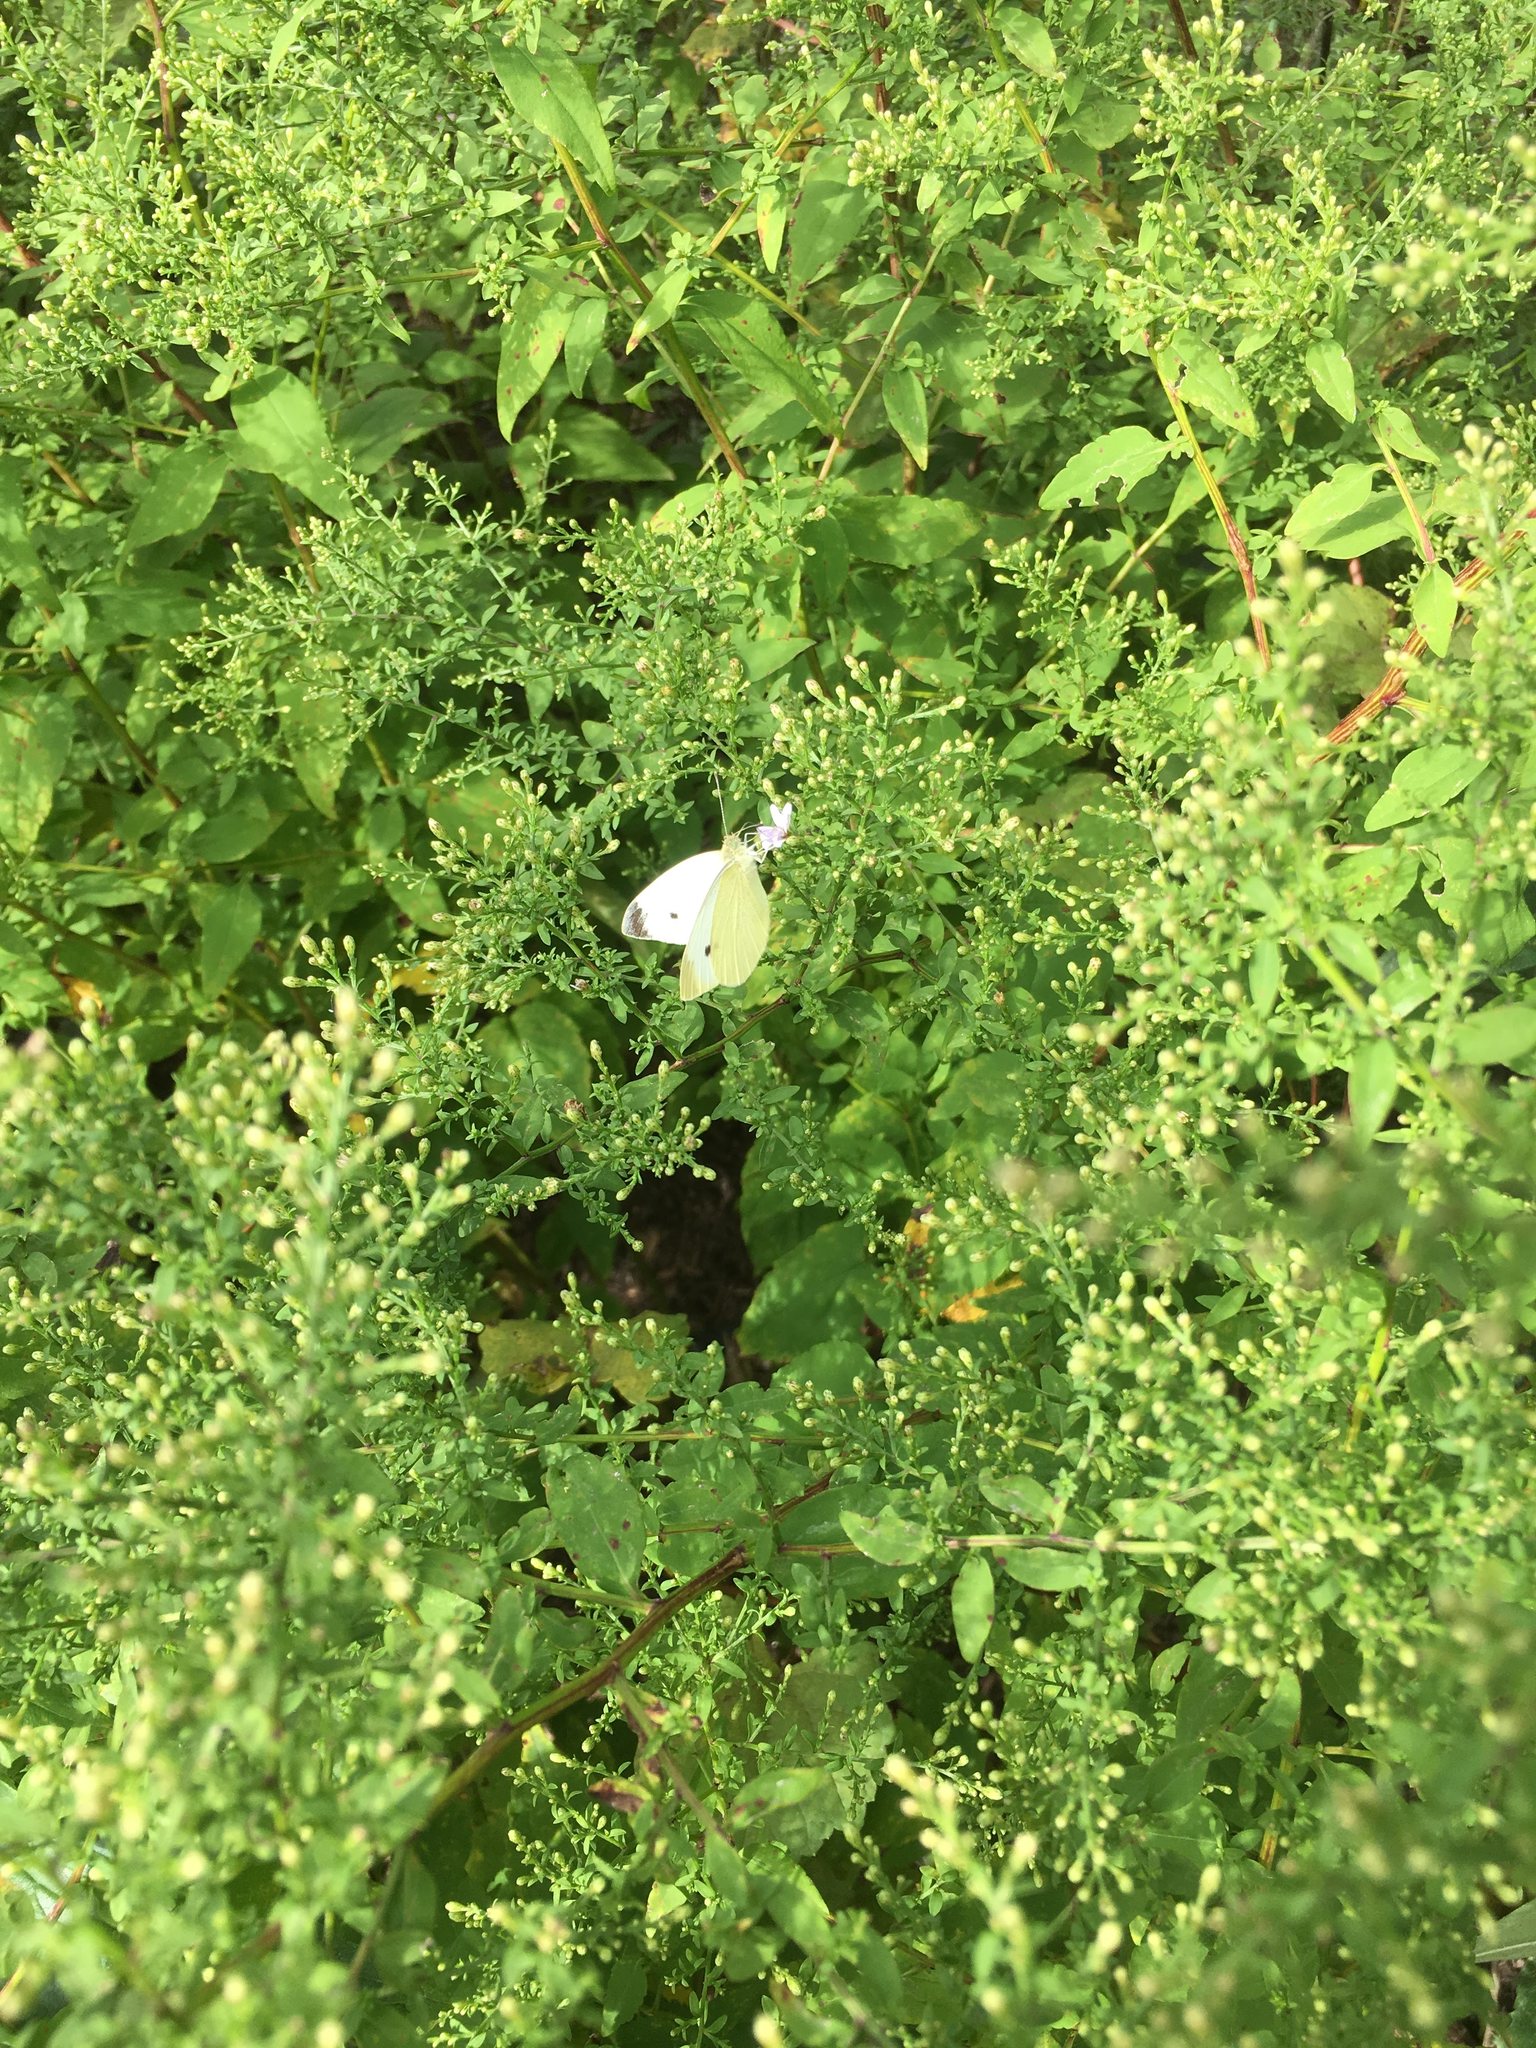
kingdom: Animalia
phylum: Arthropoda
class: Insecta
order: Lepidoptera
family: Pieridae
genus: Pieris
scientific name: Pieris rapae
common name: Small white
